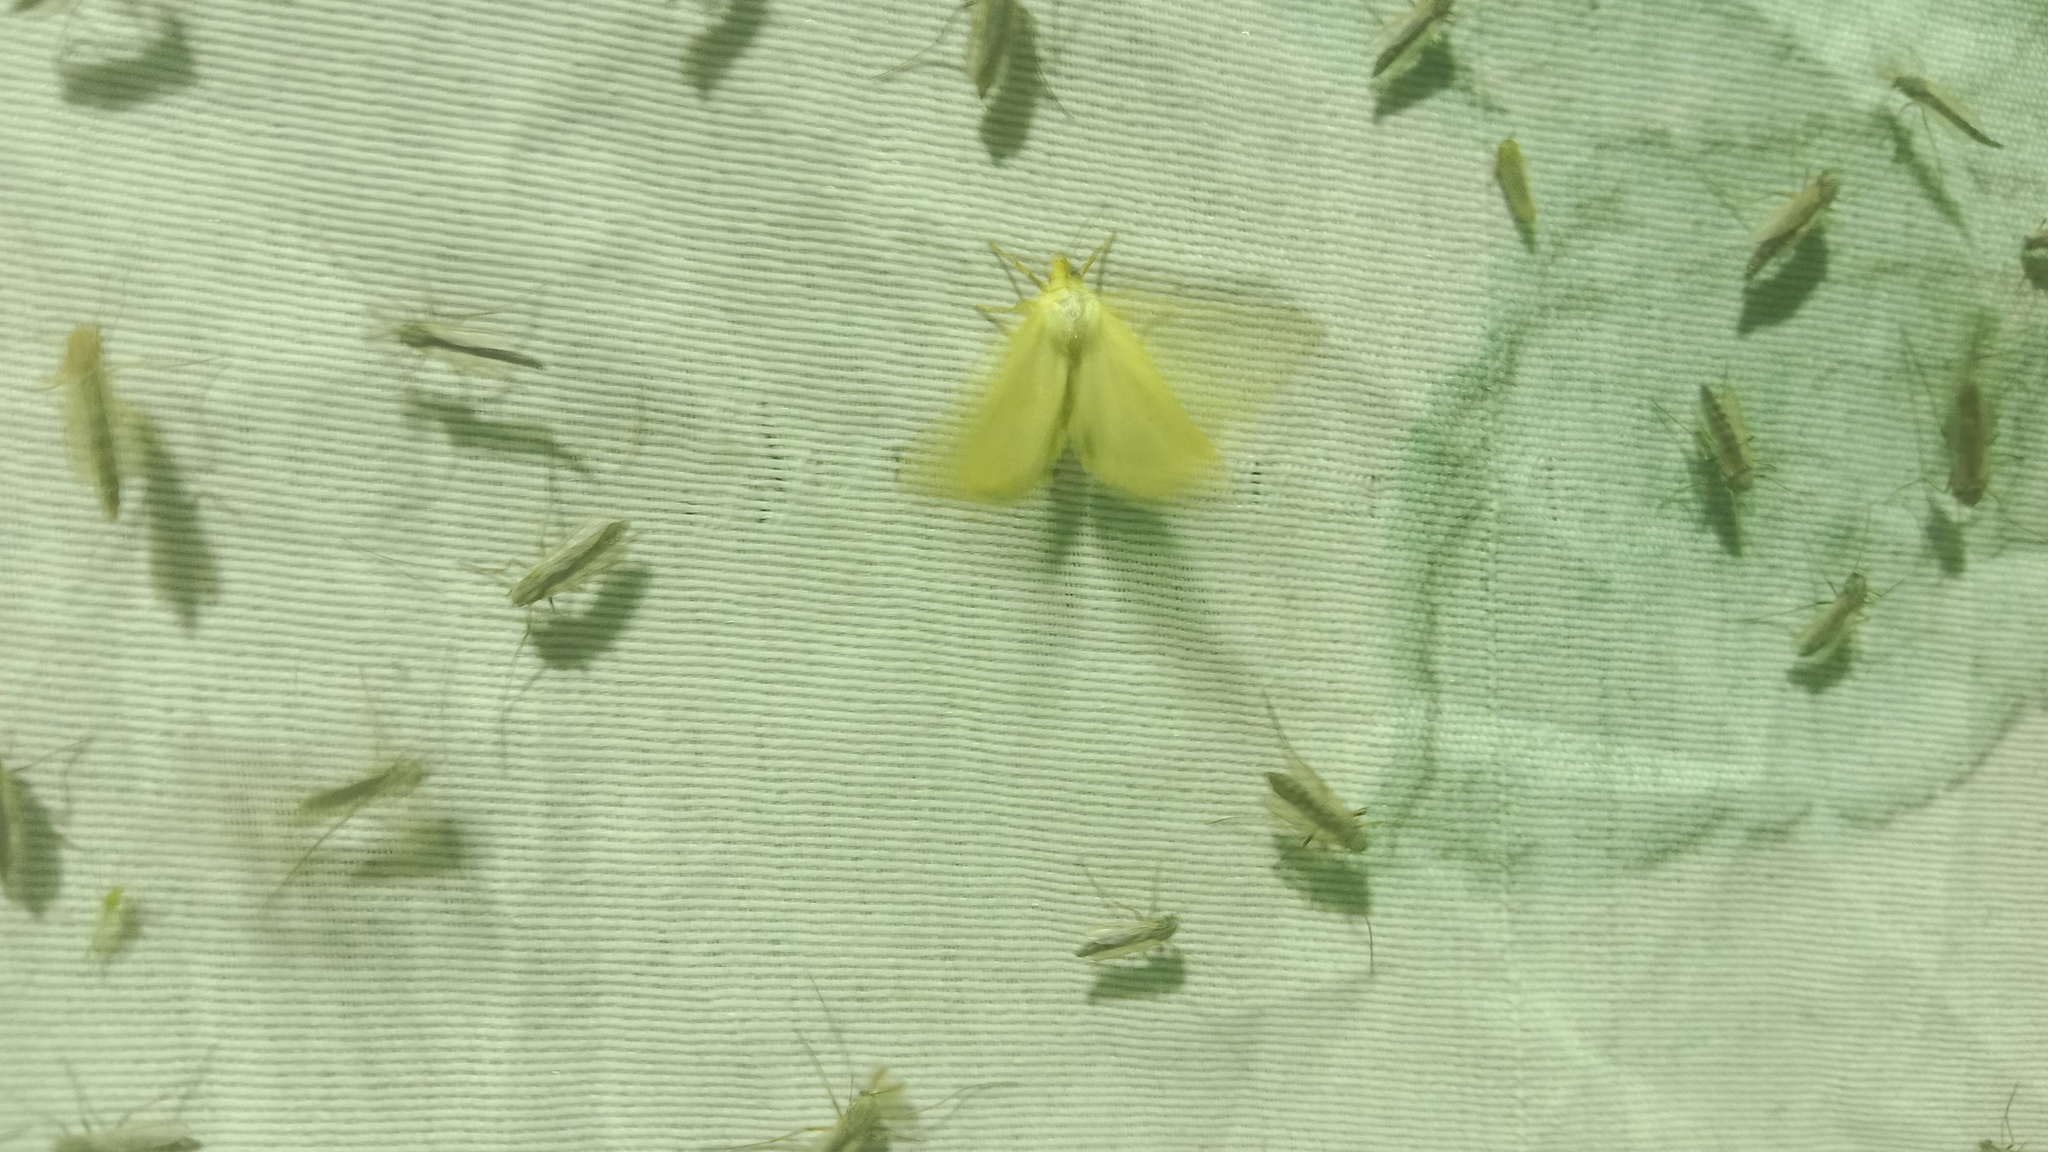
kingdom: Animalia
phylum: Arthropoda
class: Insecta
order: Lepidoptera
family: Noctuidae
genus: Aegle
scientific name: Aegle kaekeritziana
